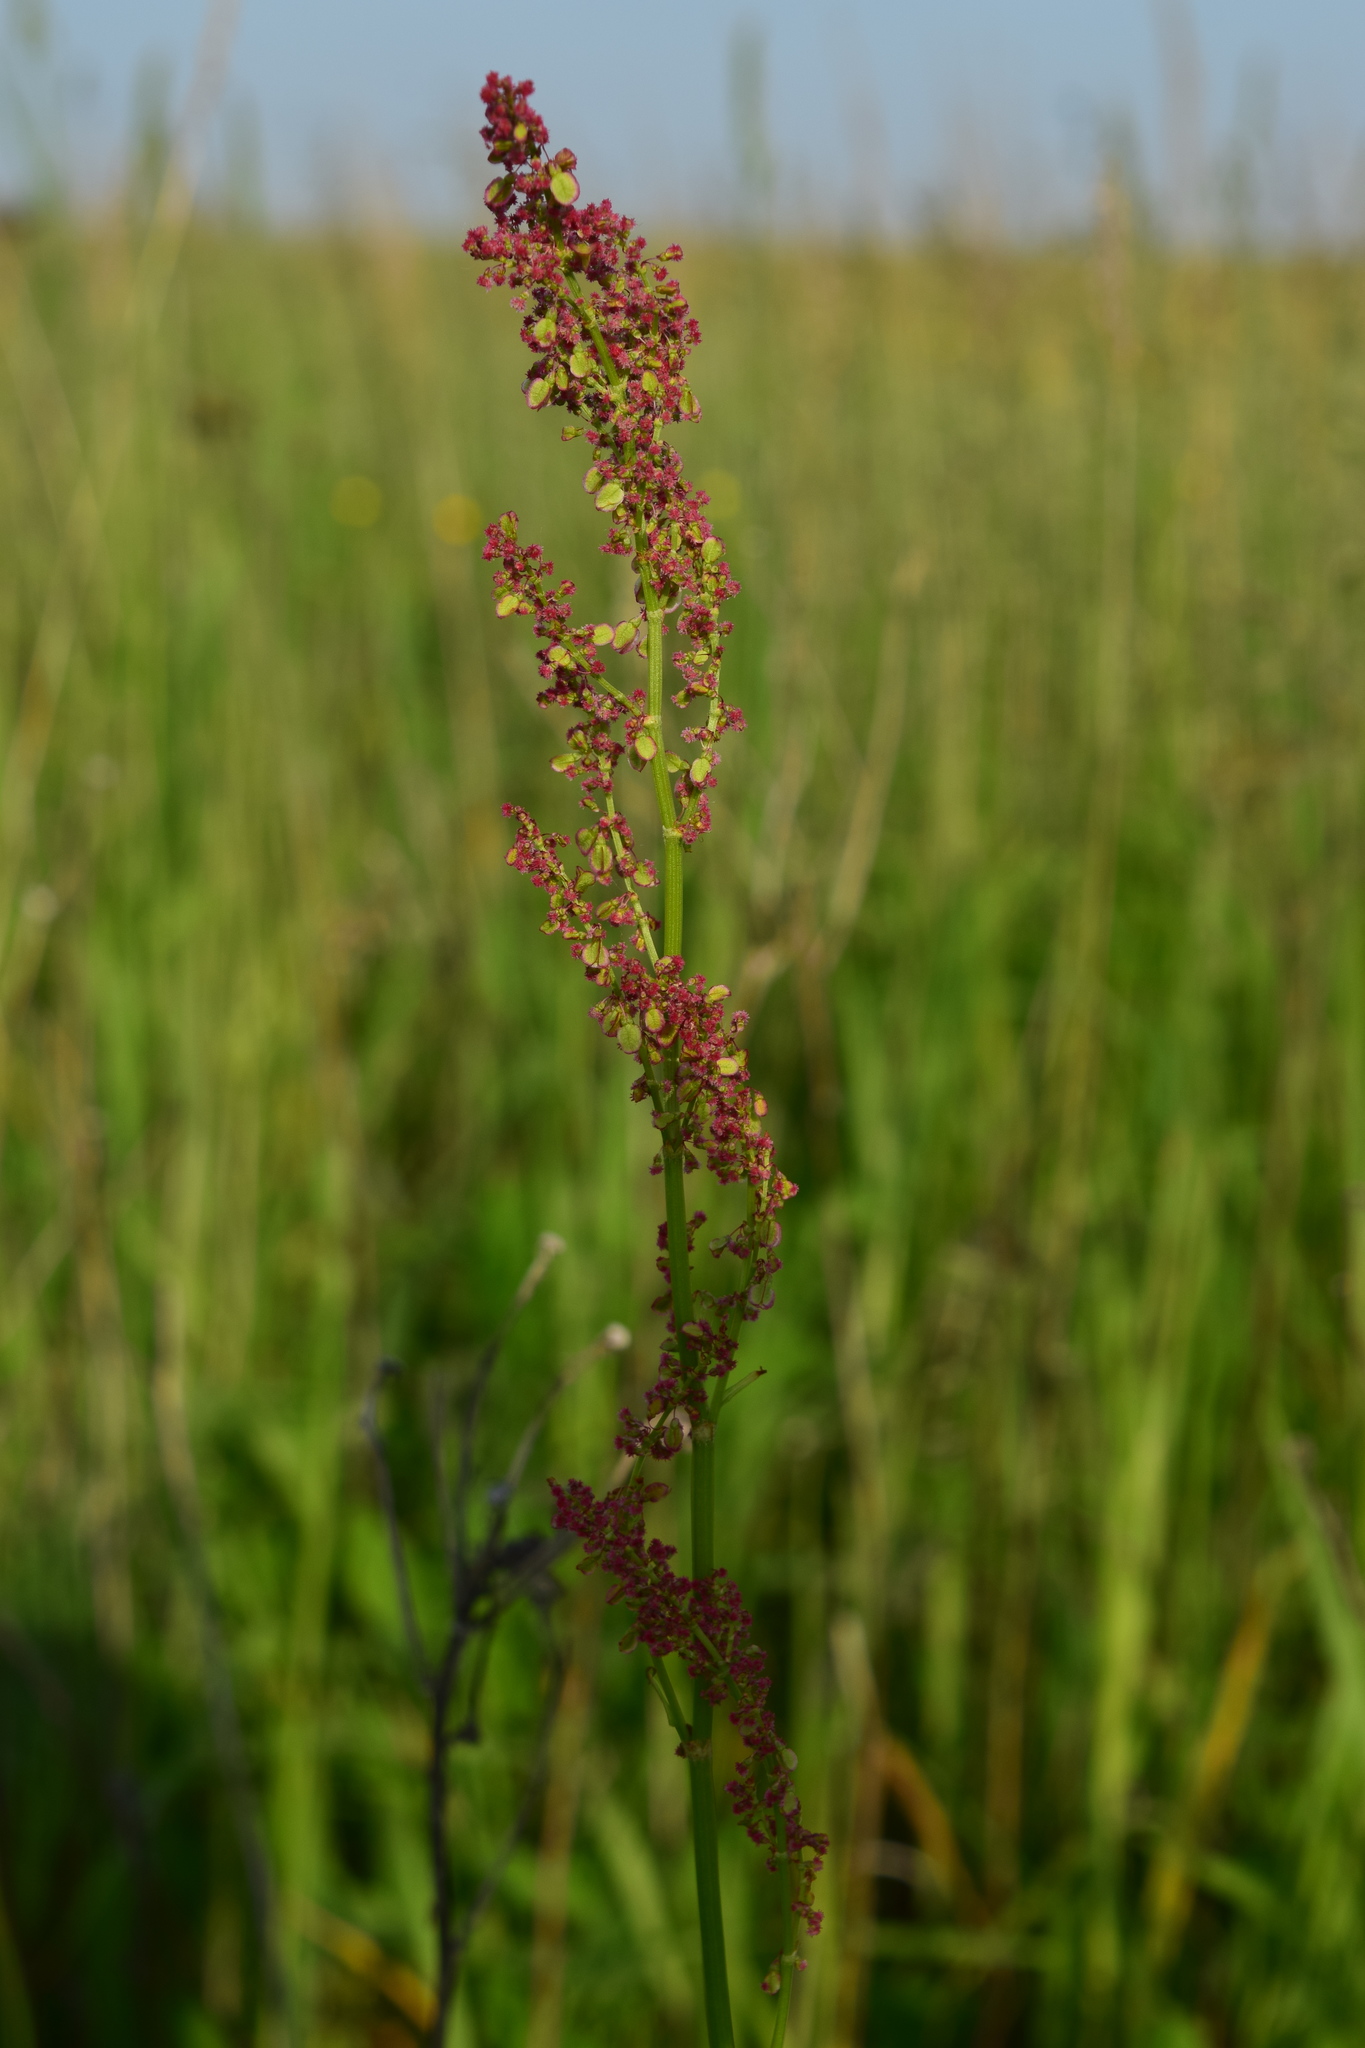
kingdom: Plantae
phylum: Tracheophyta
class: Magnoliopsida
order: Caryophyllales
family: Polygonaceae
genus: Rumex
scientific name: Rumex acetosa
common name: Garden sorrel
